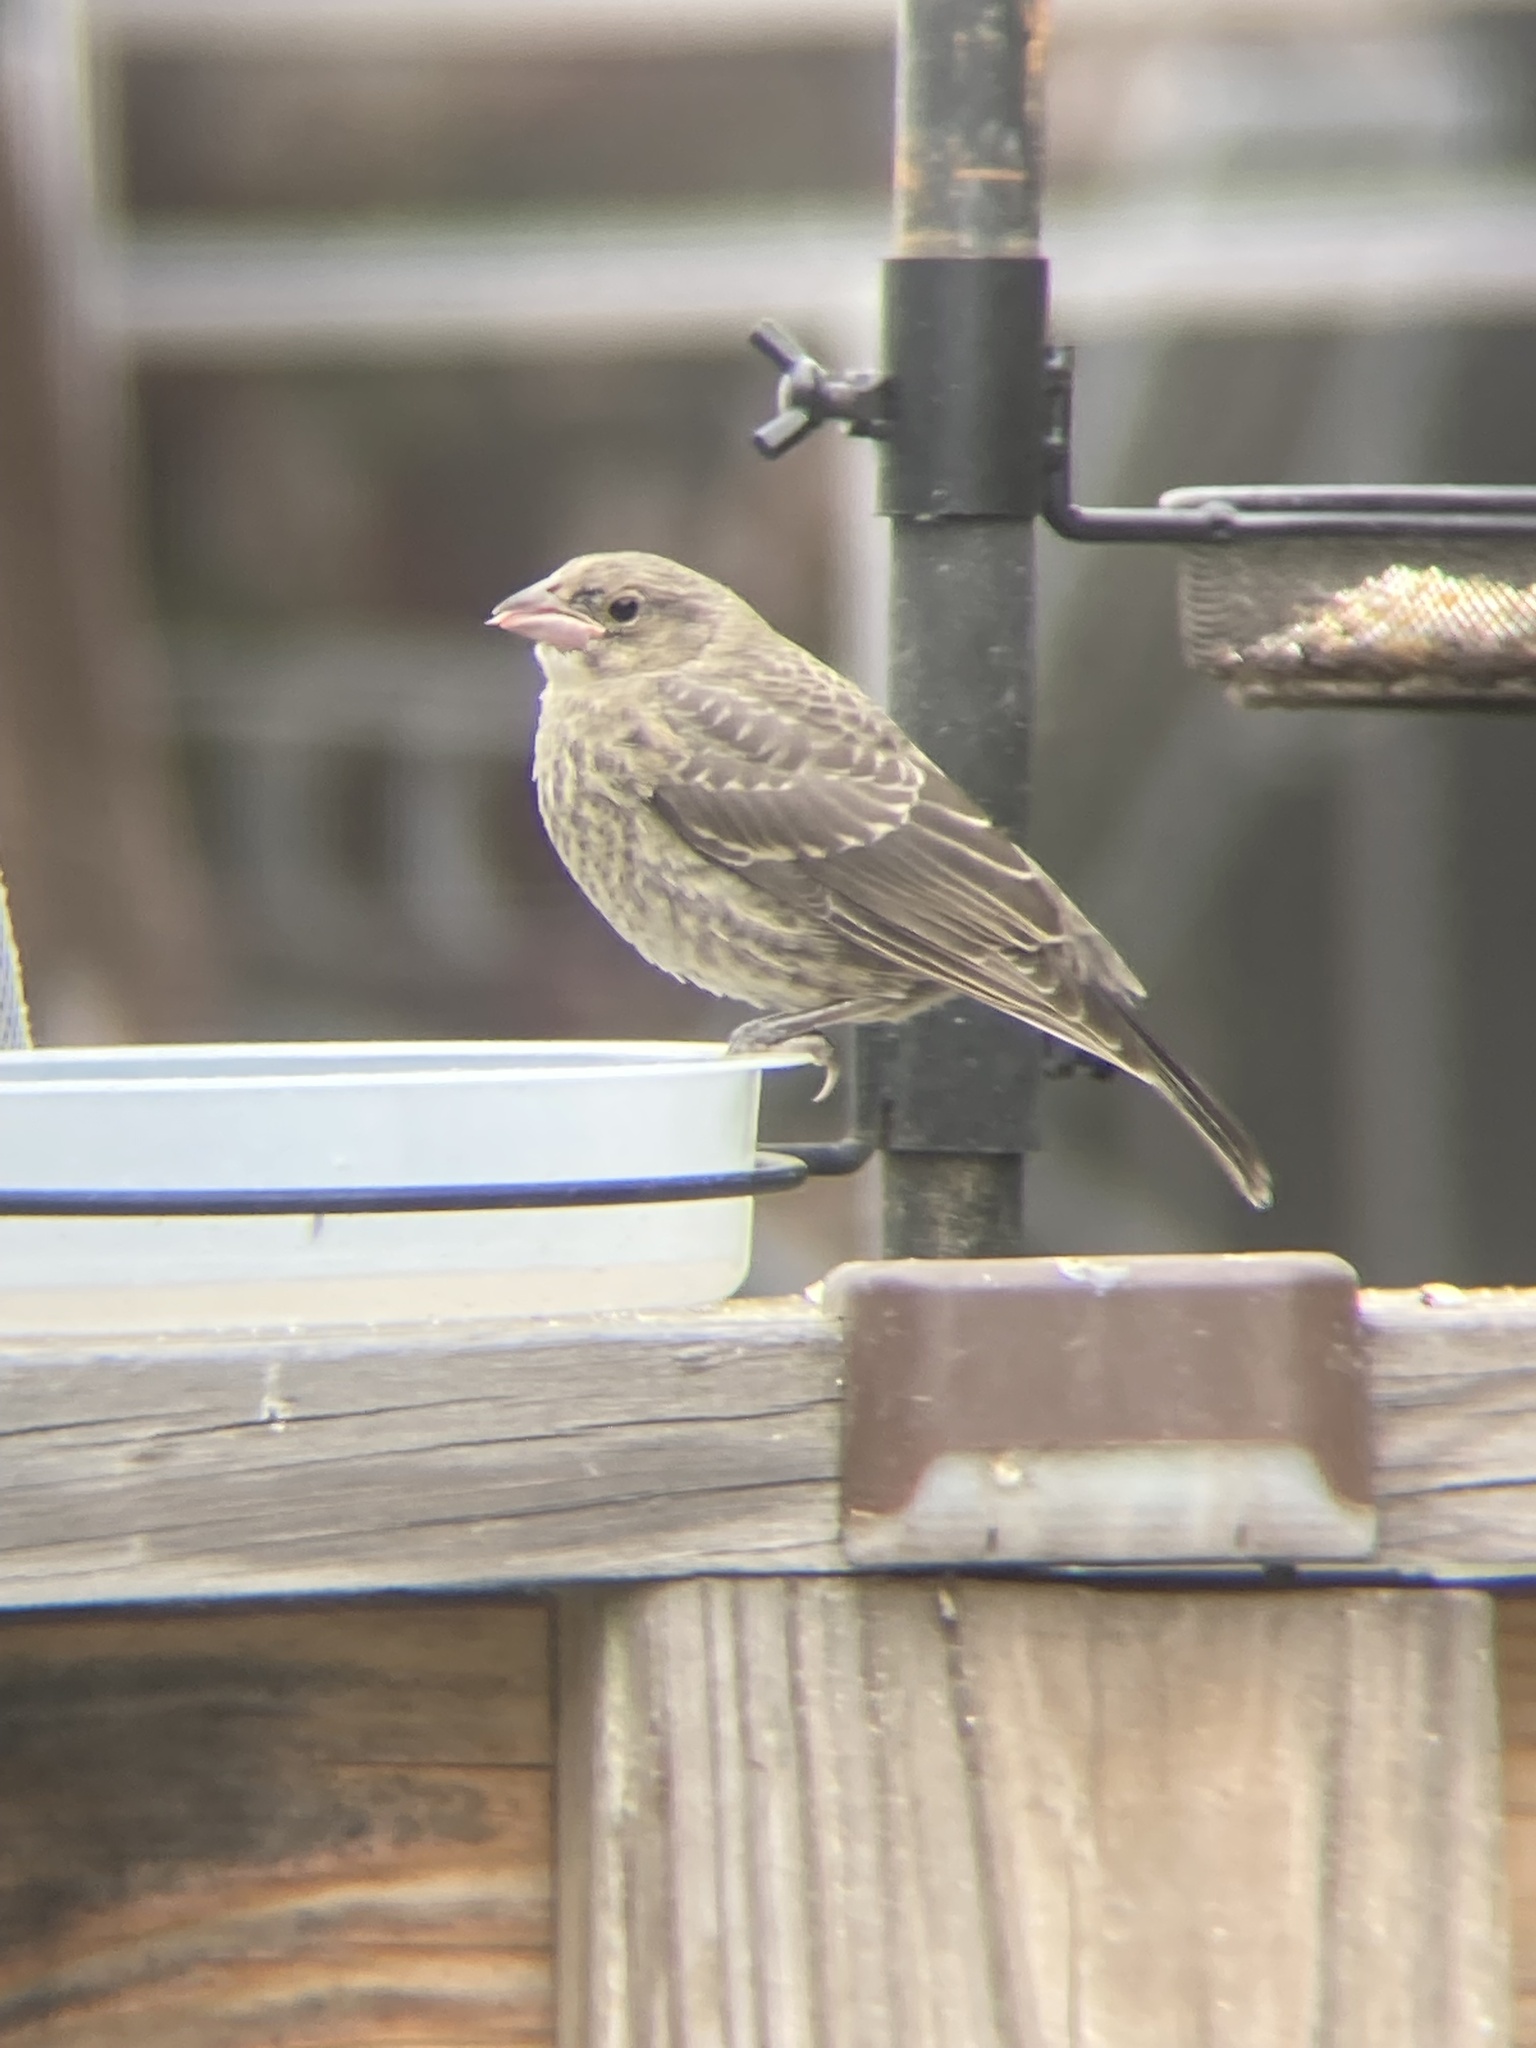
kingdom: Animalia
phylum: Chordata
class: Aves
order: Passeriformes
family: Icteridae
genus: Molothrus
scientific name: Molothrus ater
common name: Brown-headed cowbird
